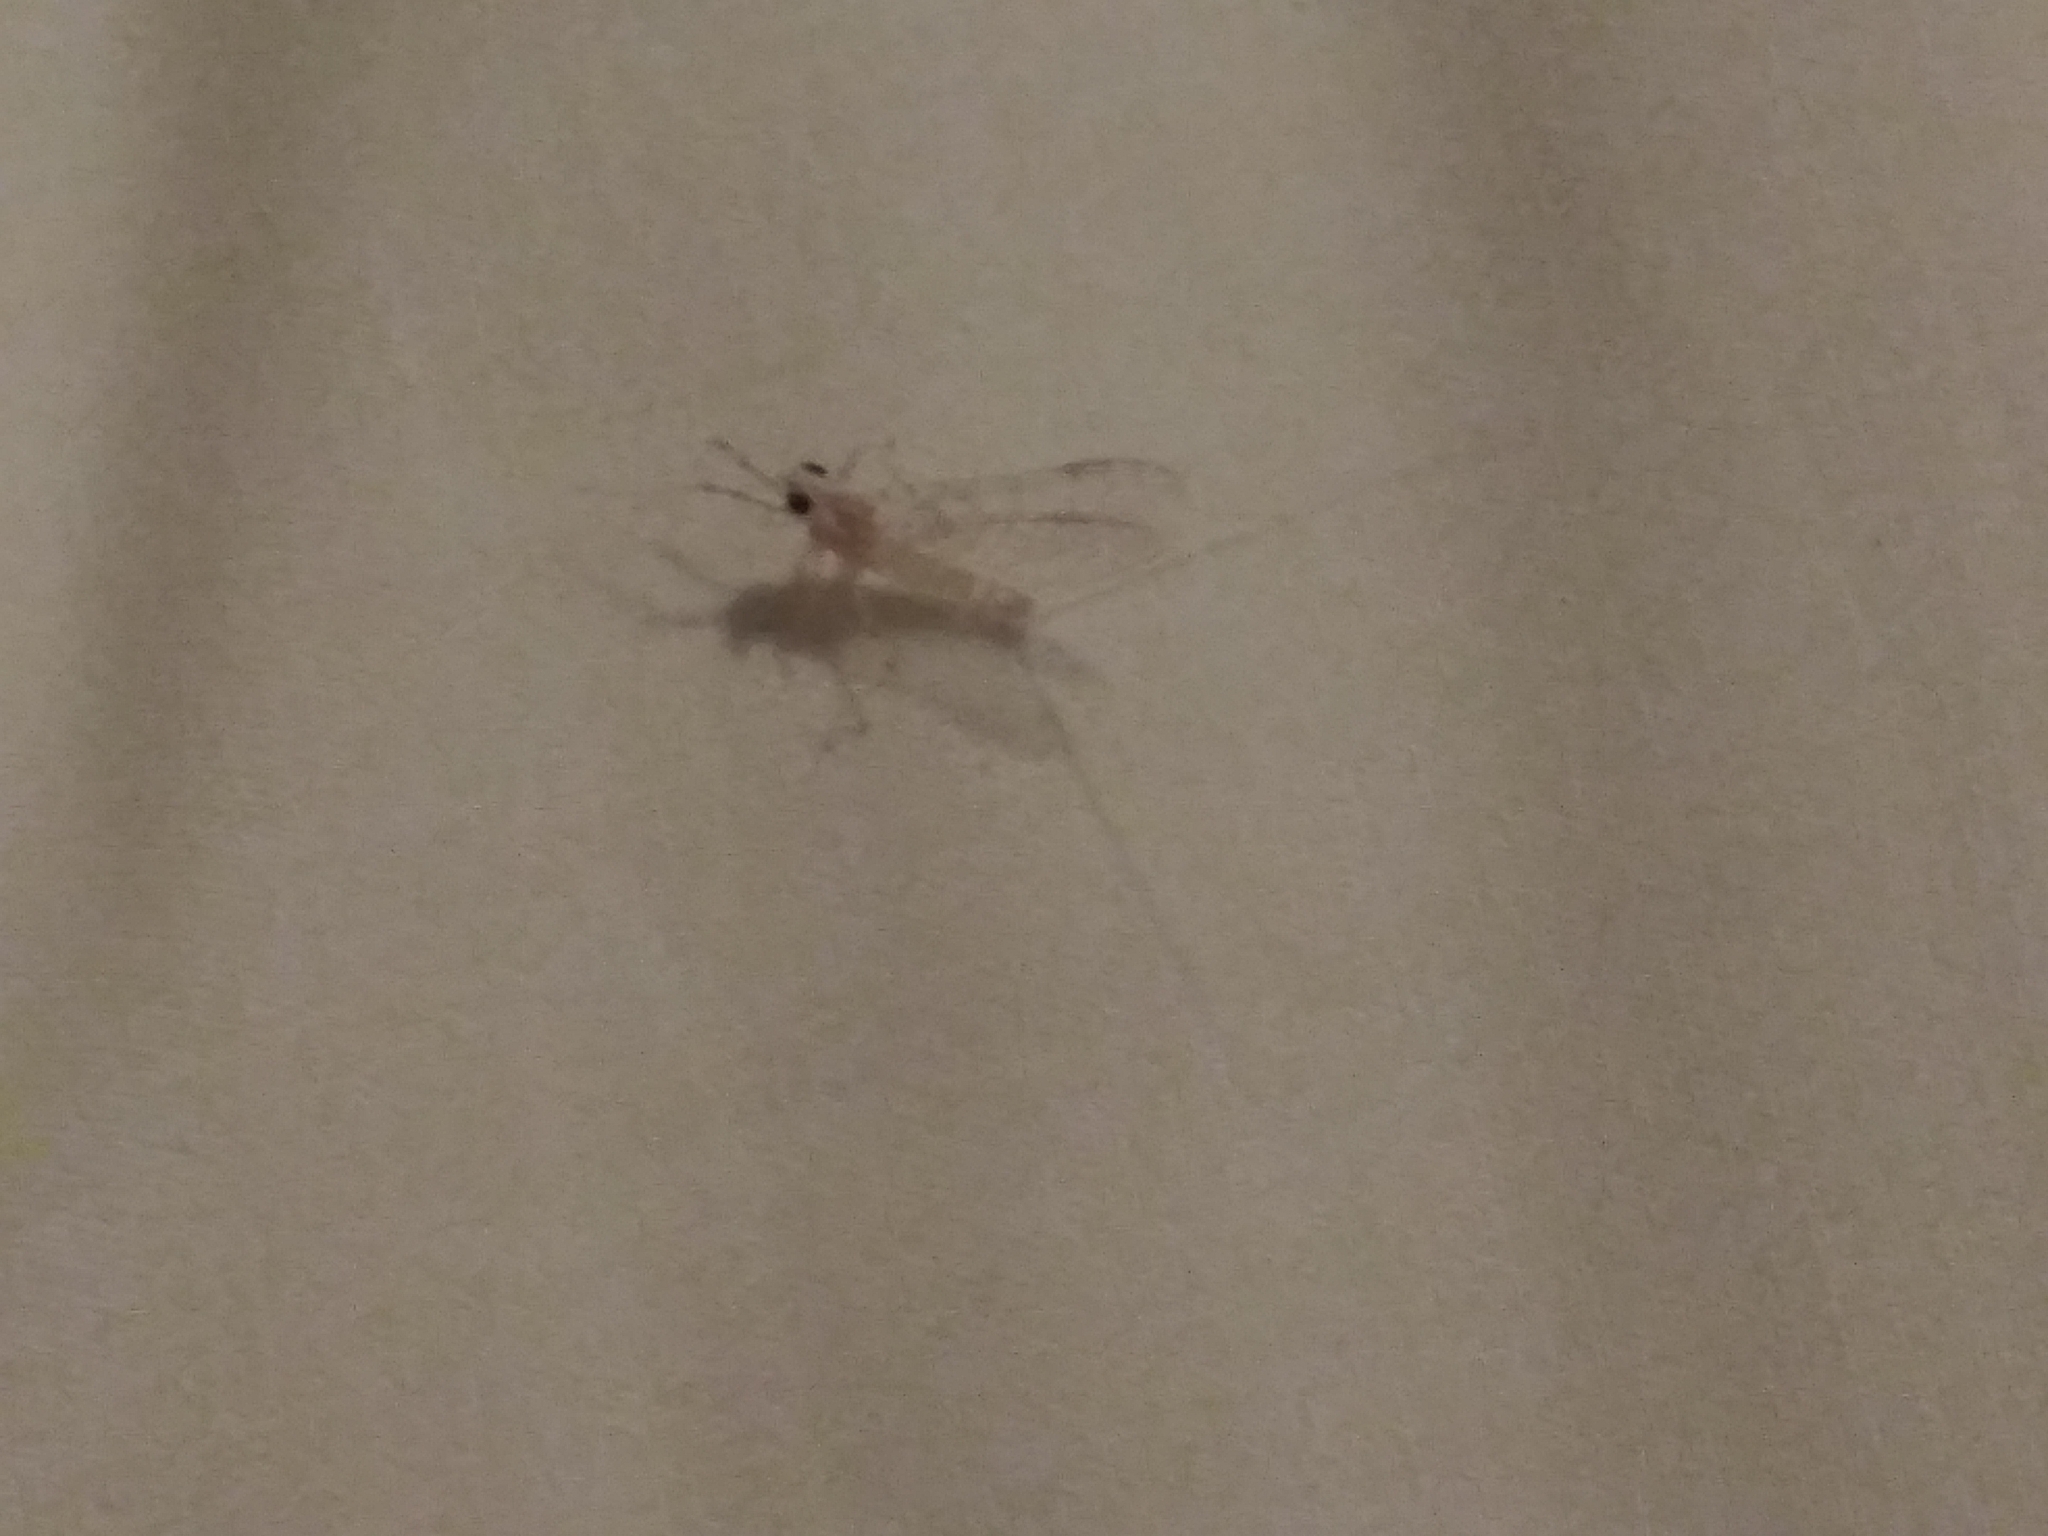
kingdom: Animalia
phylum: Arthropoda
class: Insecta
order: Ephemeroptera
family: Heptageniidae
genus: Maccaffertium
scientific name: Maccaffertium modestum
